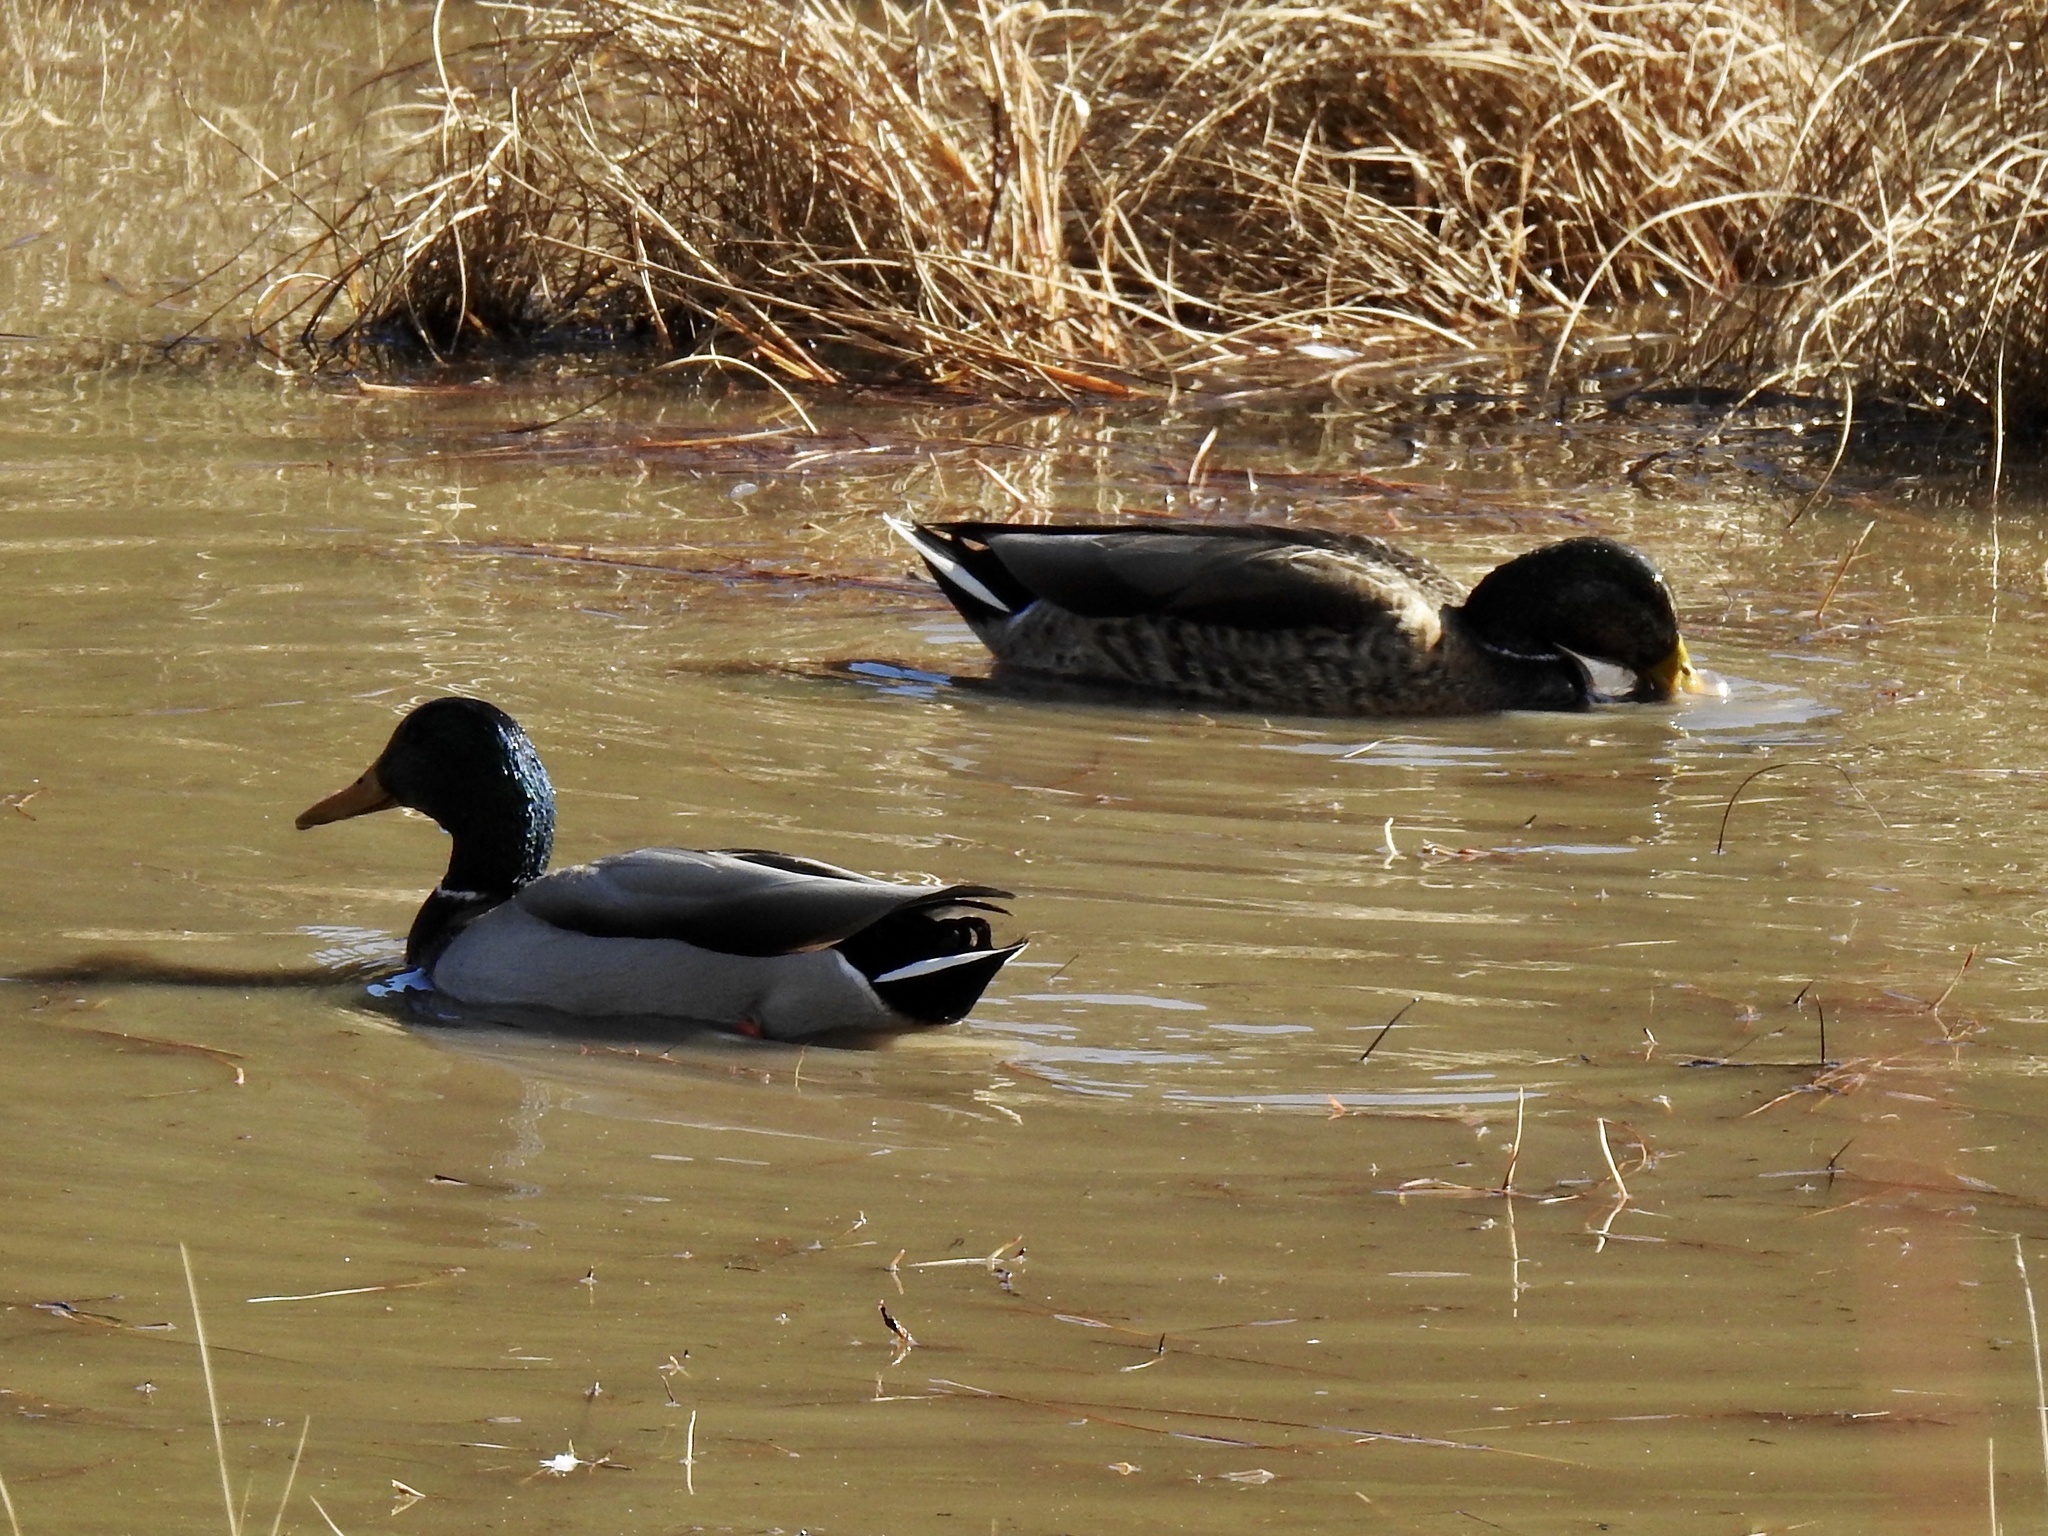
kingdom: Animalia
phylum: Chordata
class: Aves
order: Anseriformes
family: Anatidae
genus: Anas
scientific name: Anas platyrhynchos
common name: Mallard
